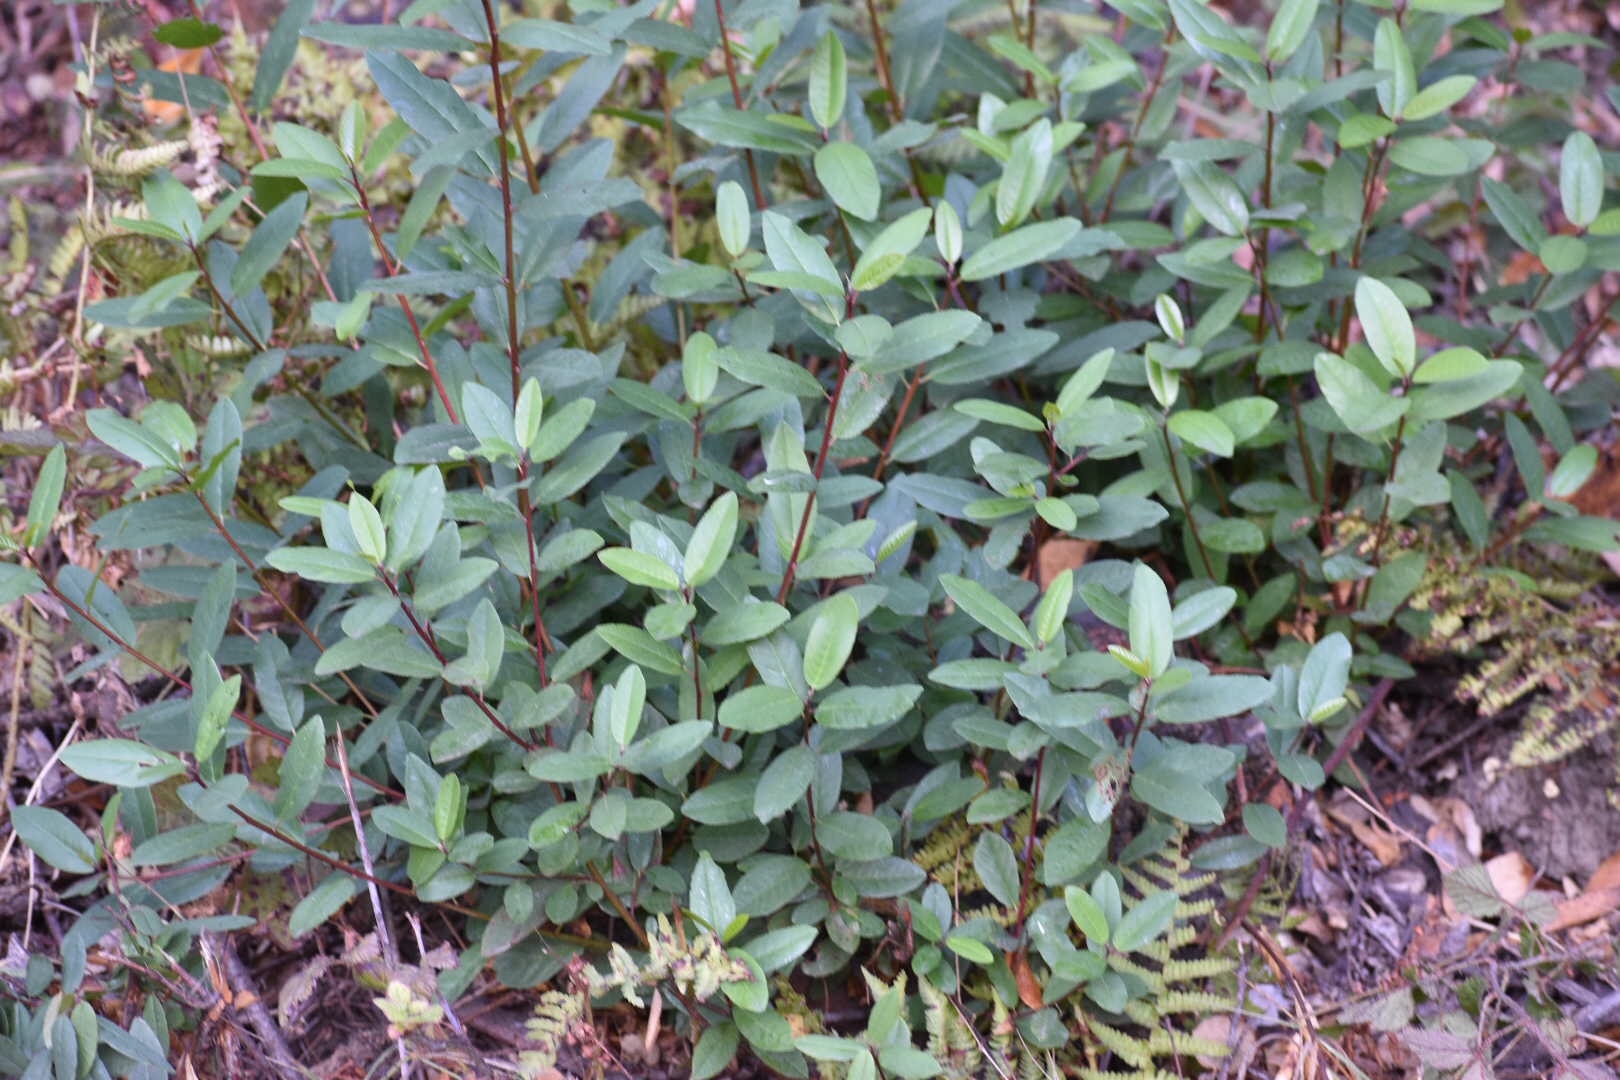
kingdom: Plantae
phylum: Tracheophyta
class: Magnoliopsida
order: Rosales
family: Rhamnaceae
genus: Frangula
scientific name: Frangula californica
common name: California buckthorn
